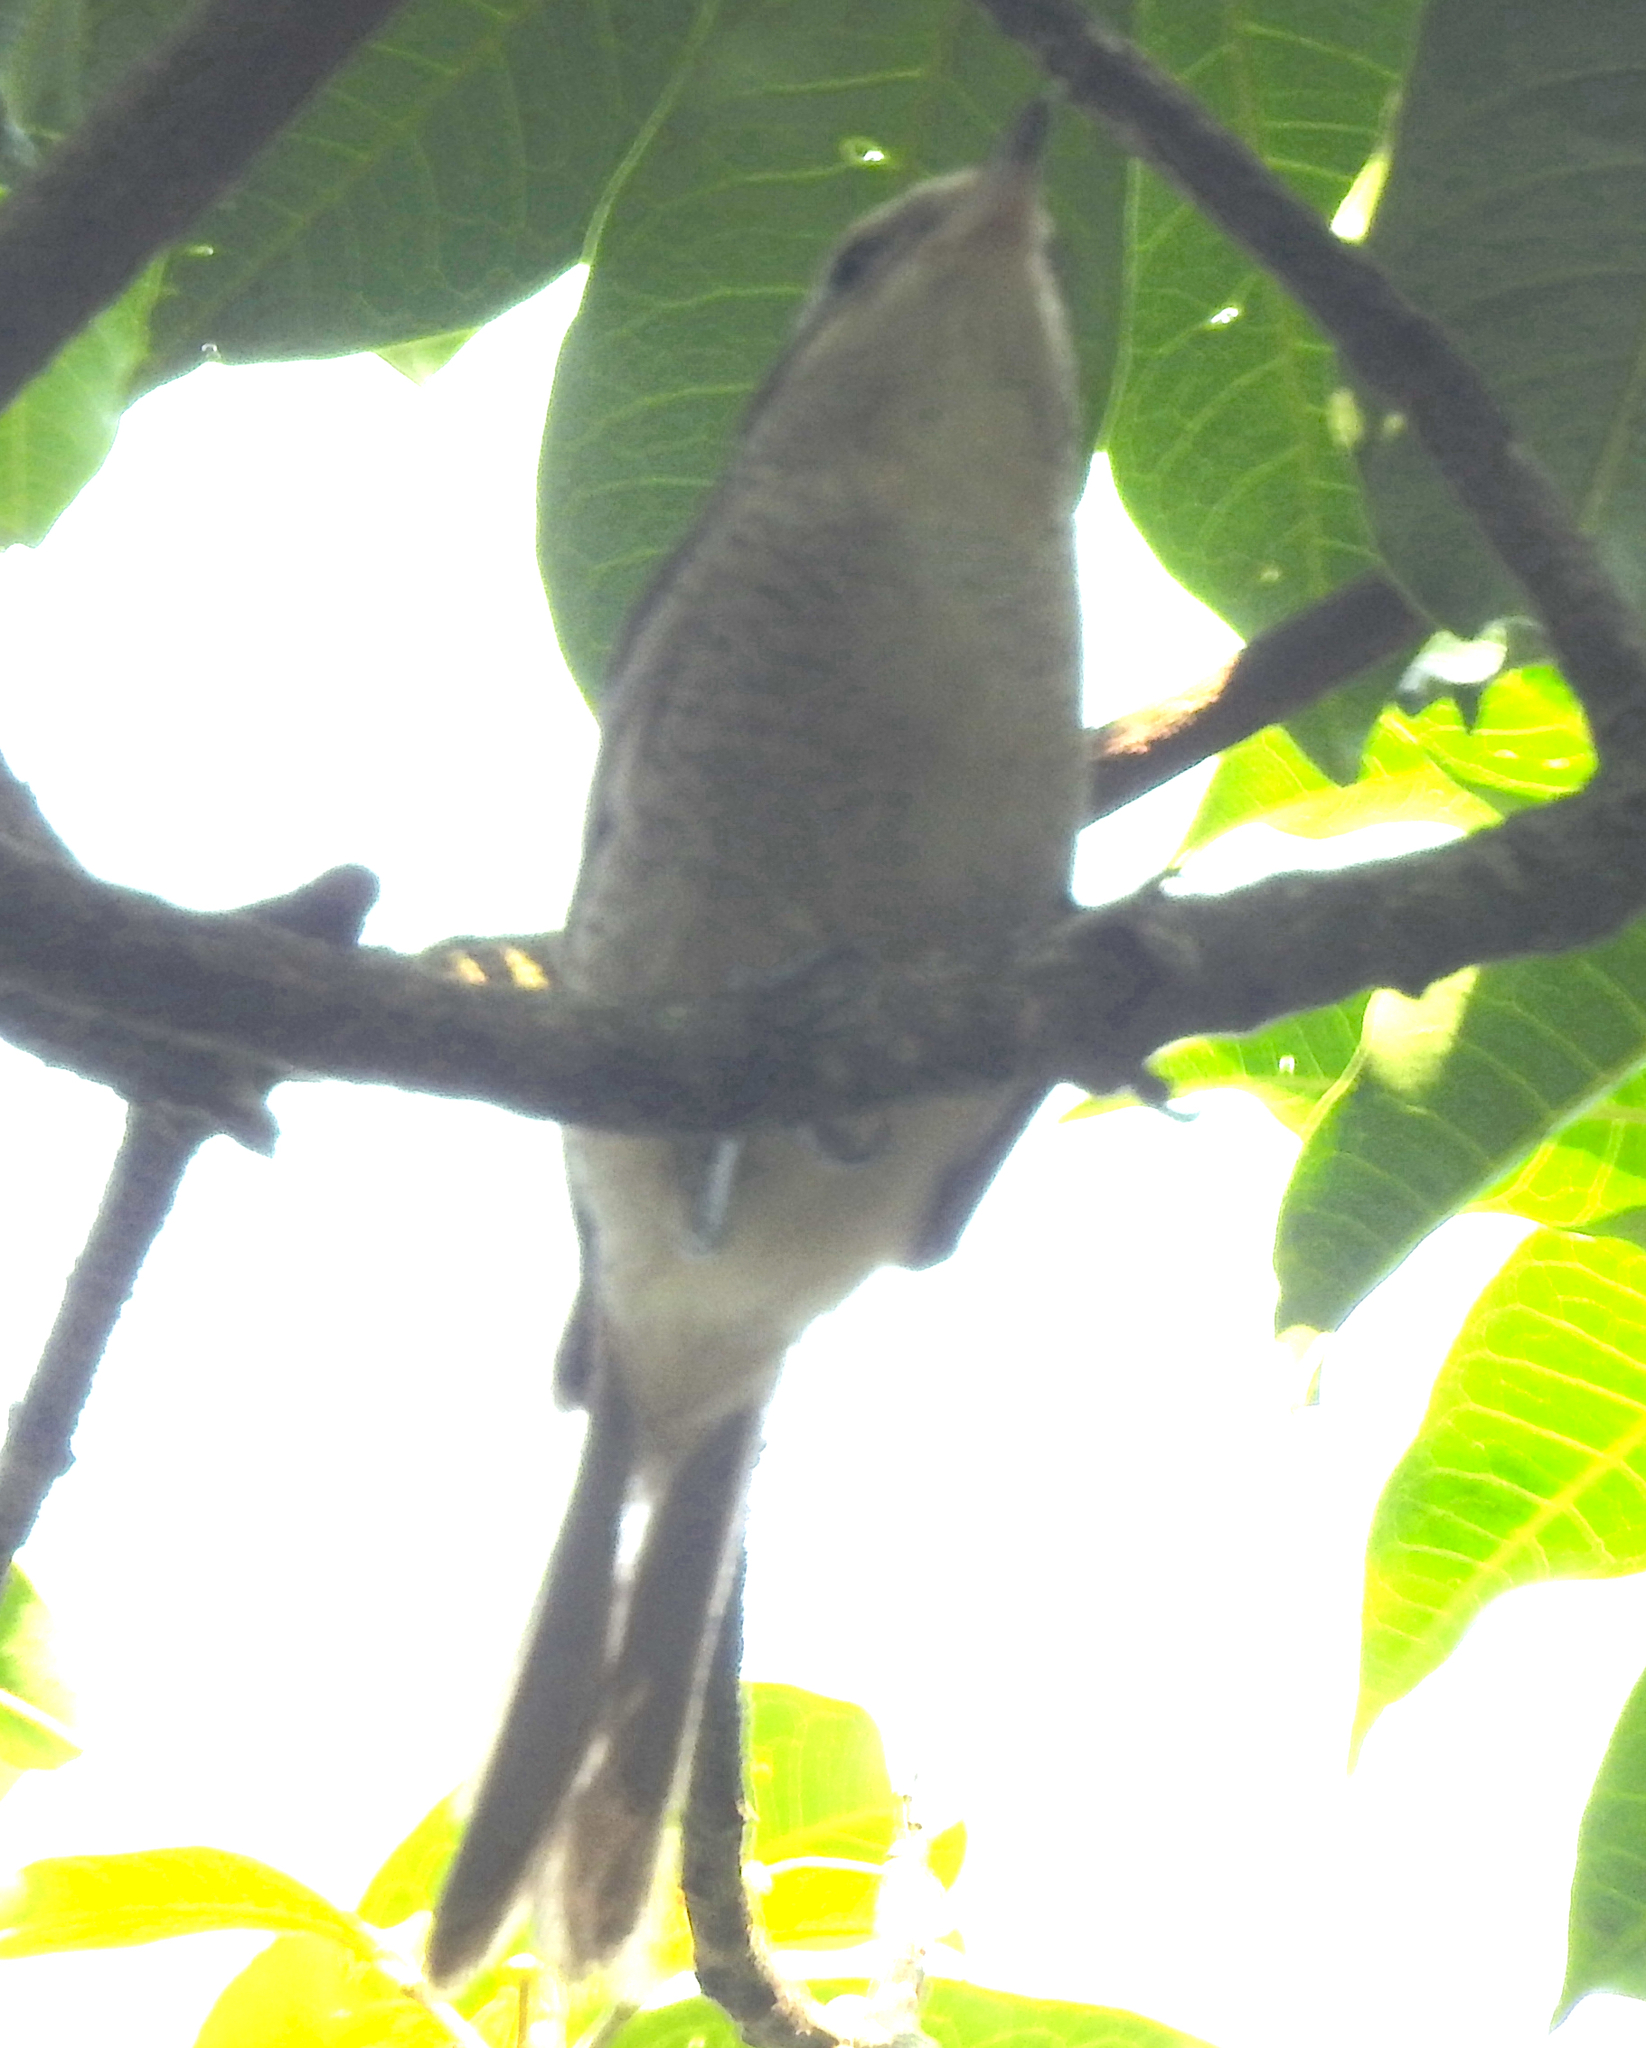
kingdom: Animalia
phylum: Chordata
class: Aves
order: Passeriformes
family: Laniidae
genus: Lanius
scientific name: Lanius cristatus
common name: Brown shrike
